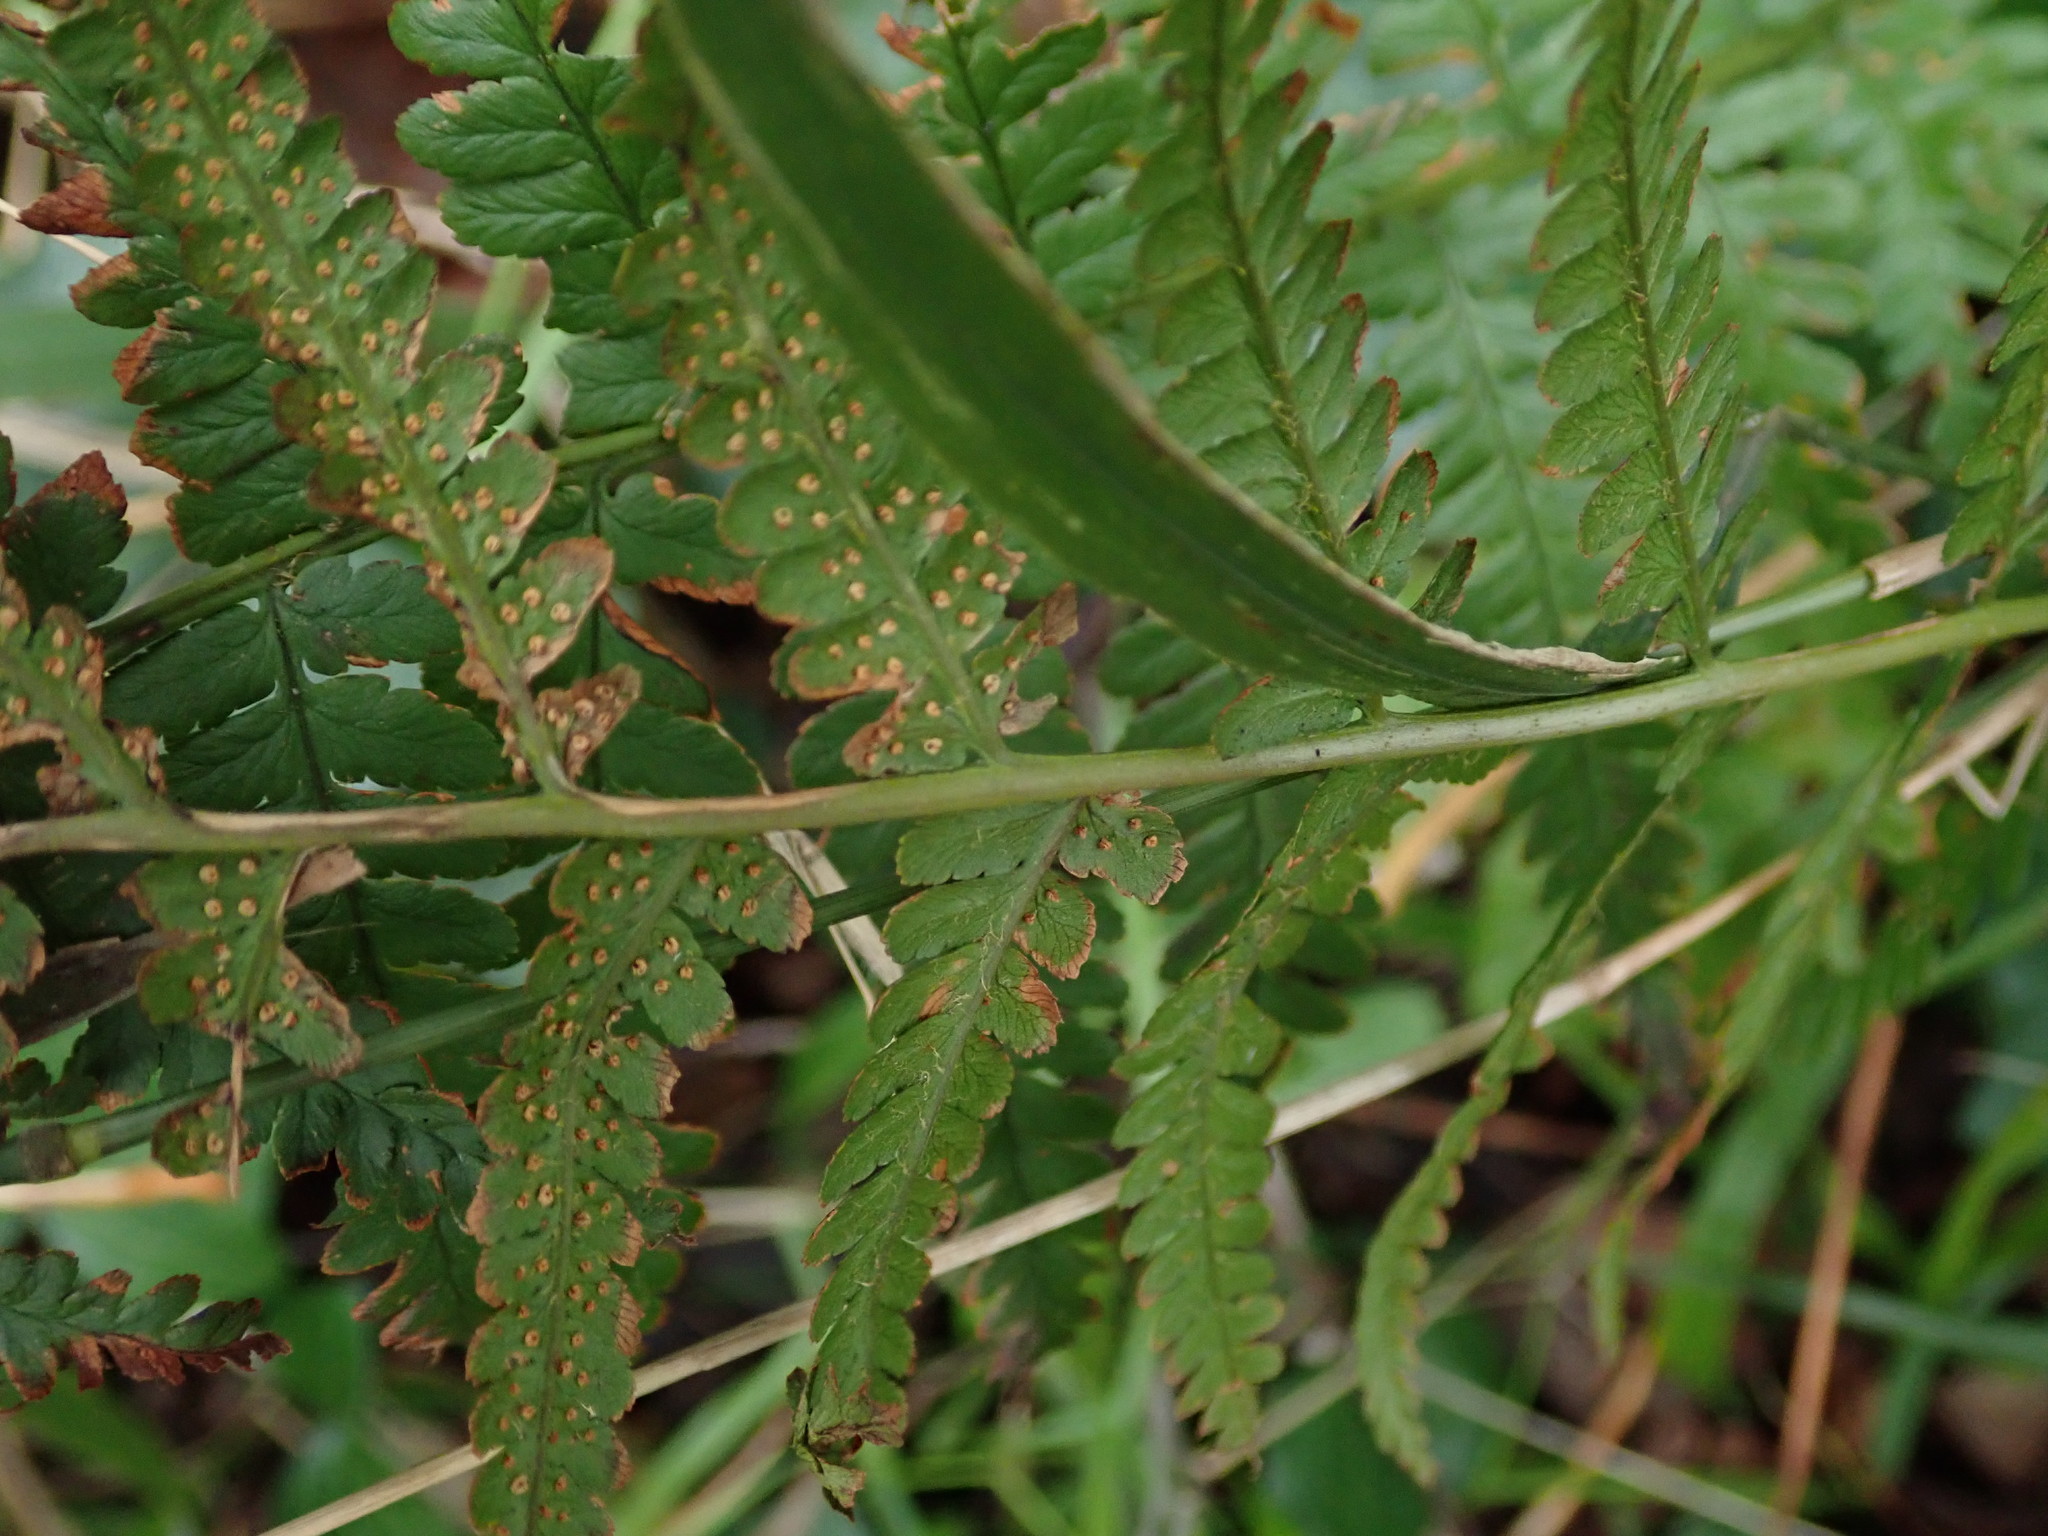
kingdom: Plantae
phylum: Tracheophyta
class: Polypodiopsida
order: Polypodiales
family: Dryopteridaceae
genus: Dryopteris
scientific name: Dryopteris filix-mas
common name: Male fern
